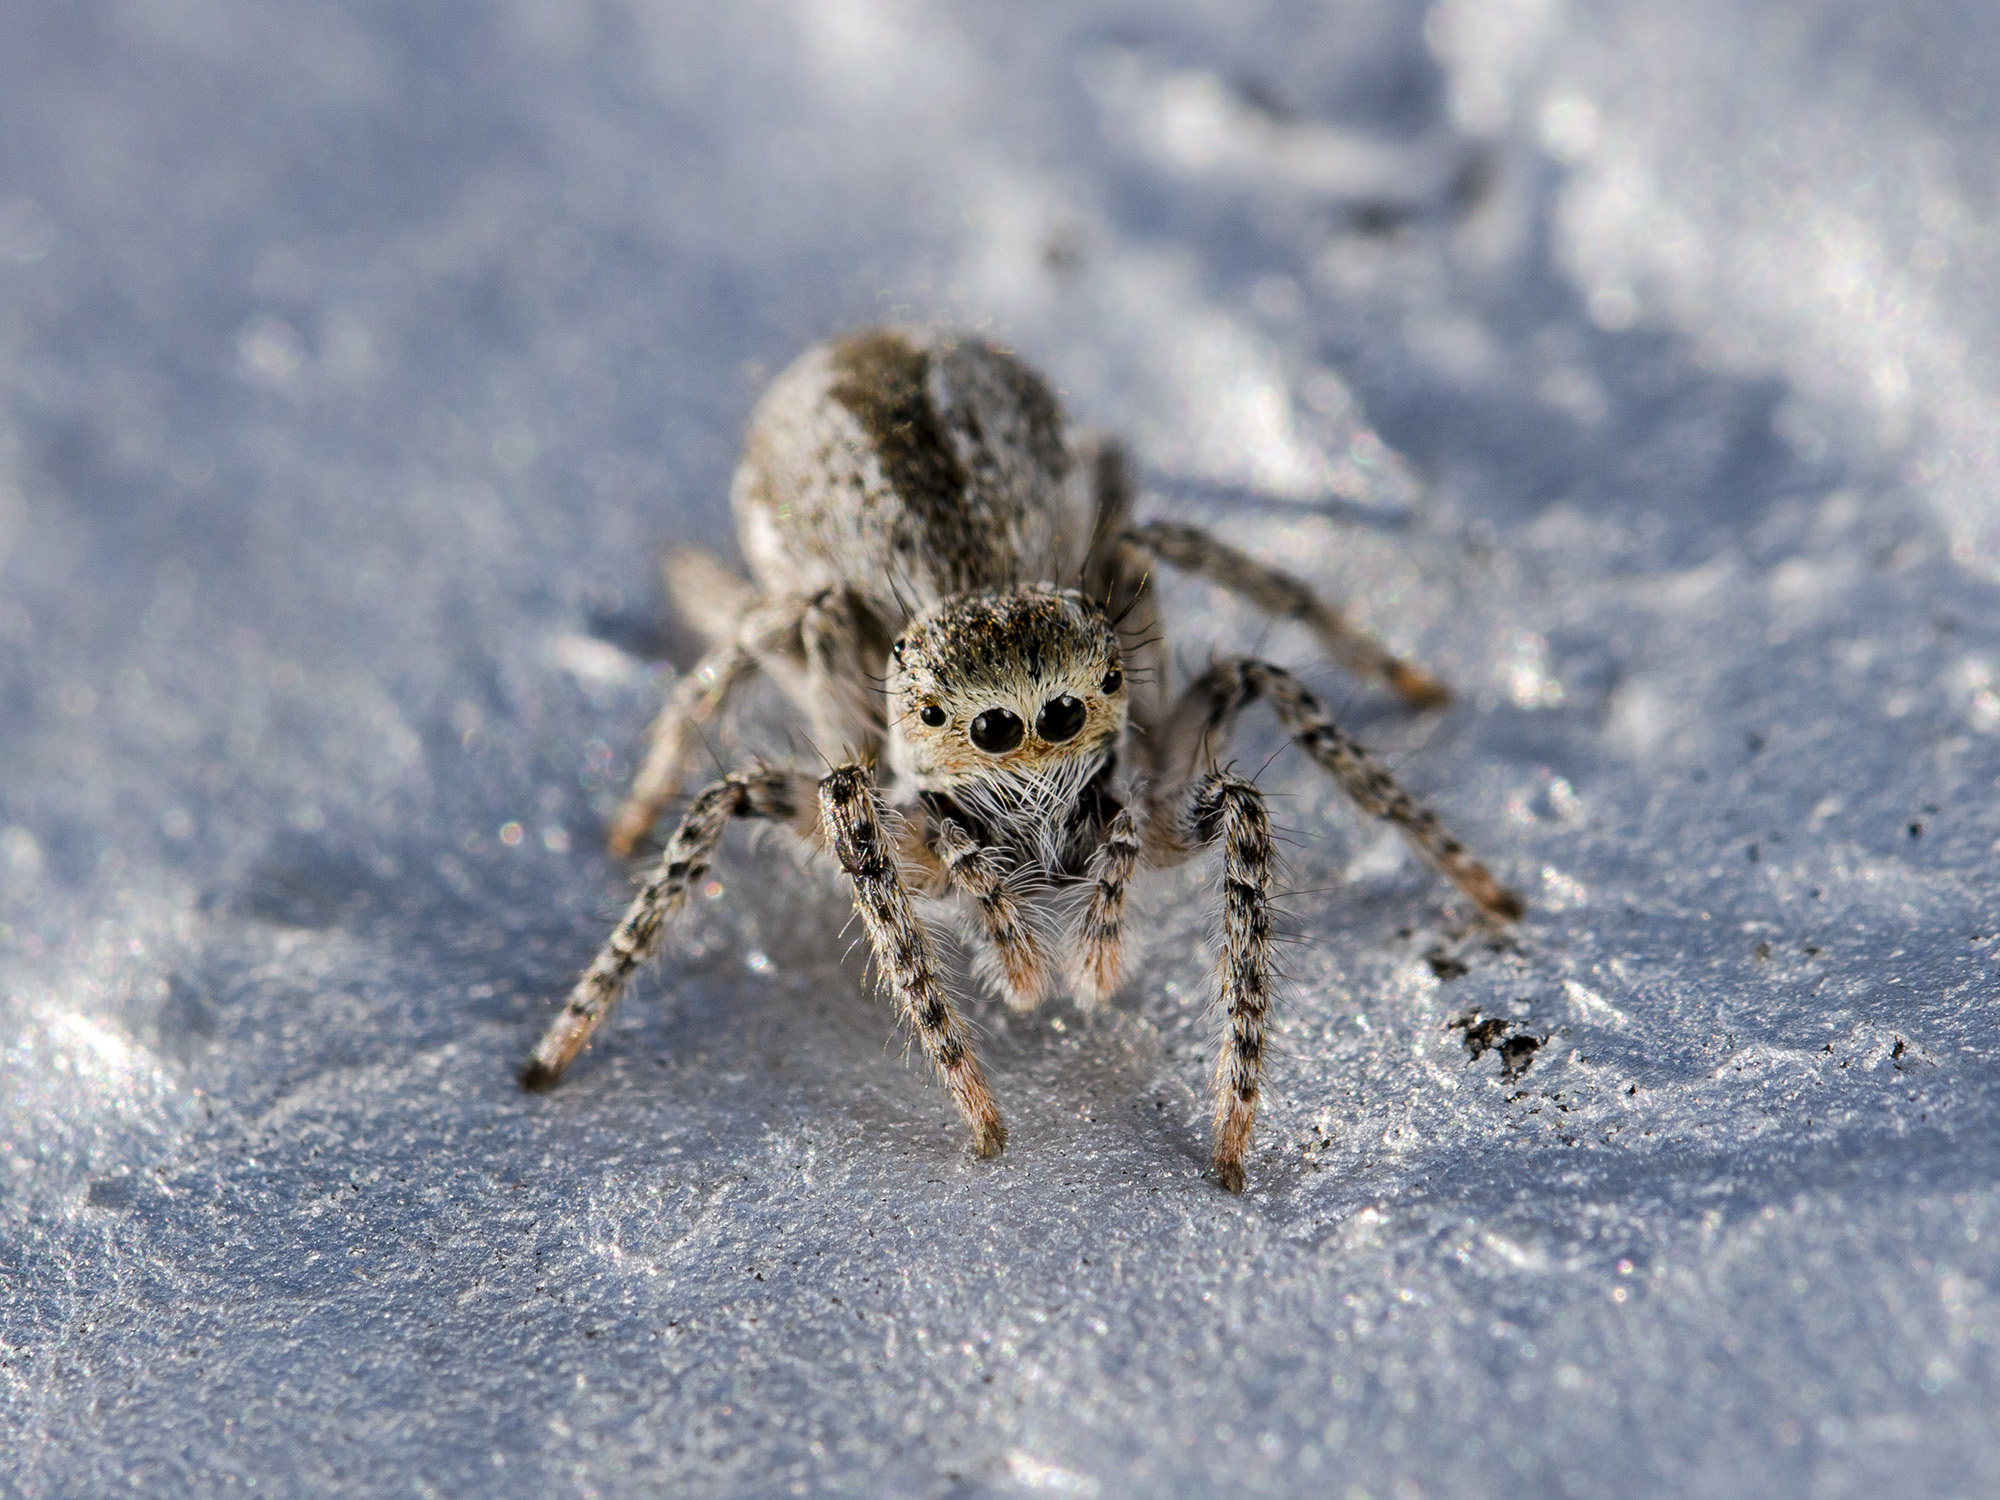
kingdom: Animalia
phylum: Arthropoda
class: Arachnida
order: Araneae
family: Salticidae
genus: Mogrus
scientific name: Mogrus larisae
